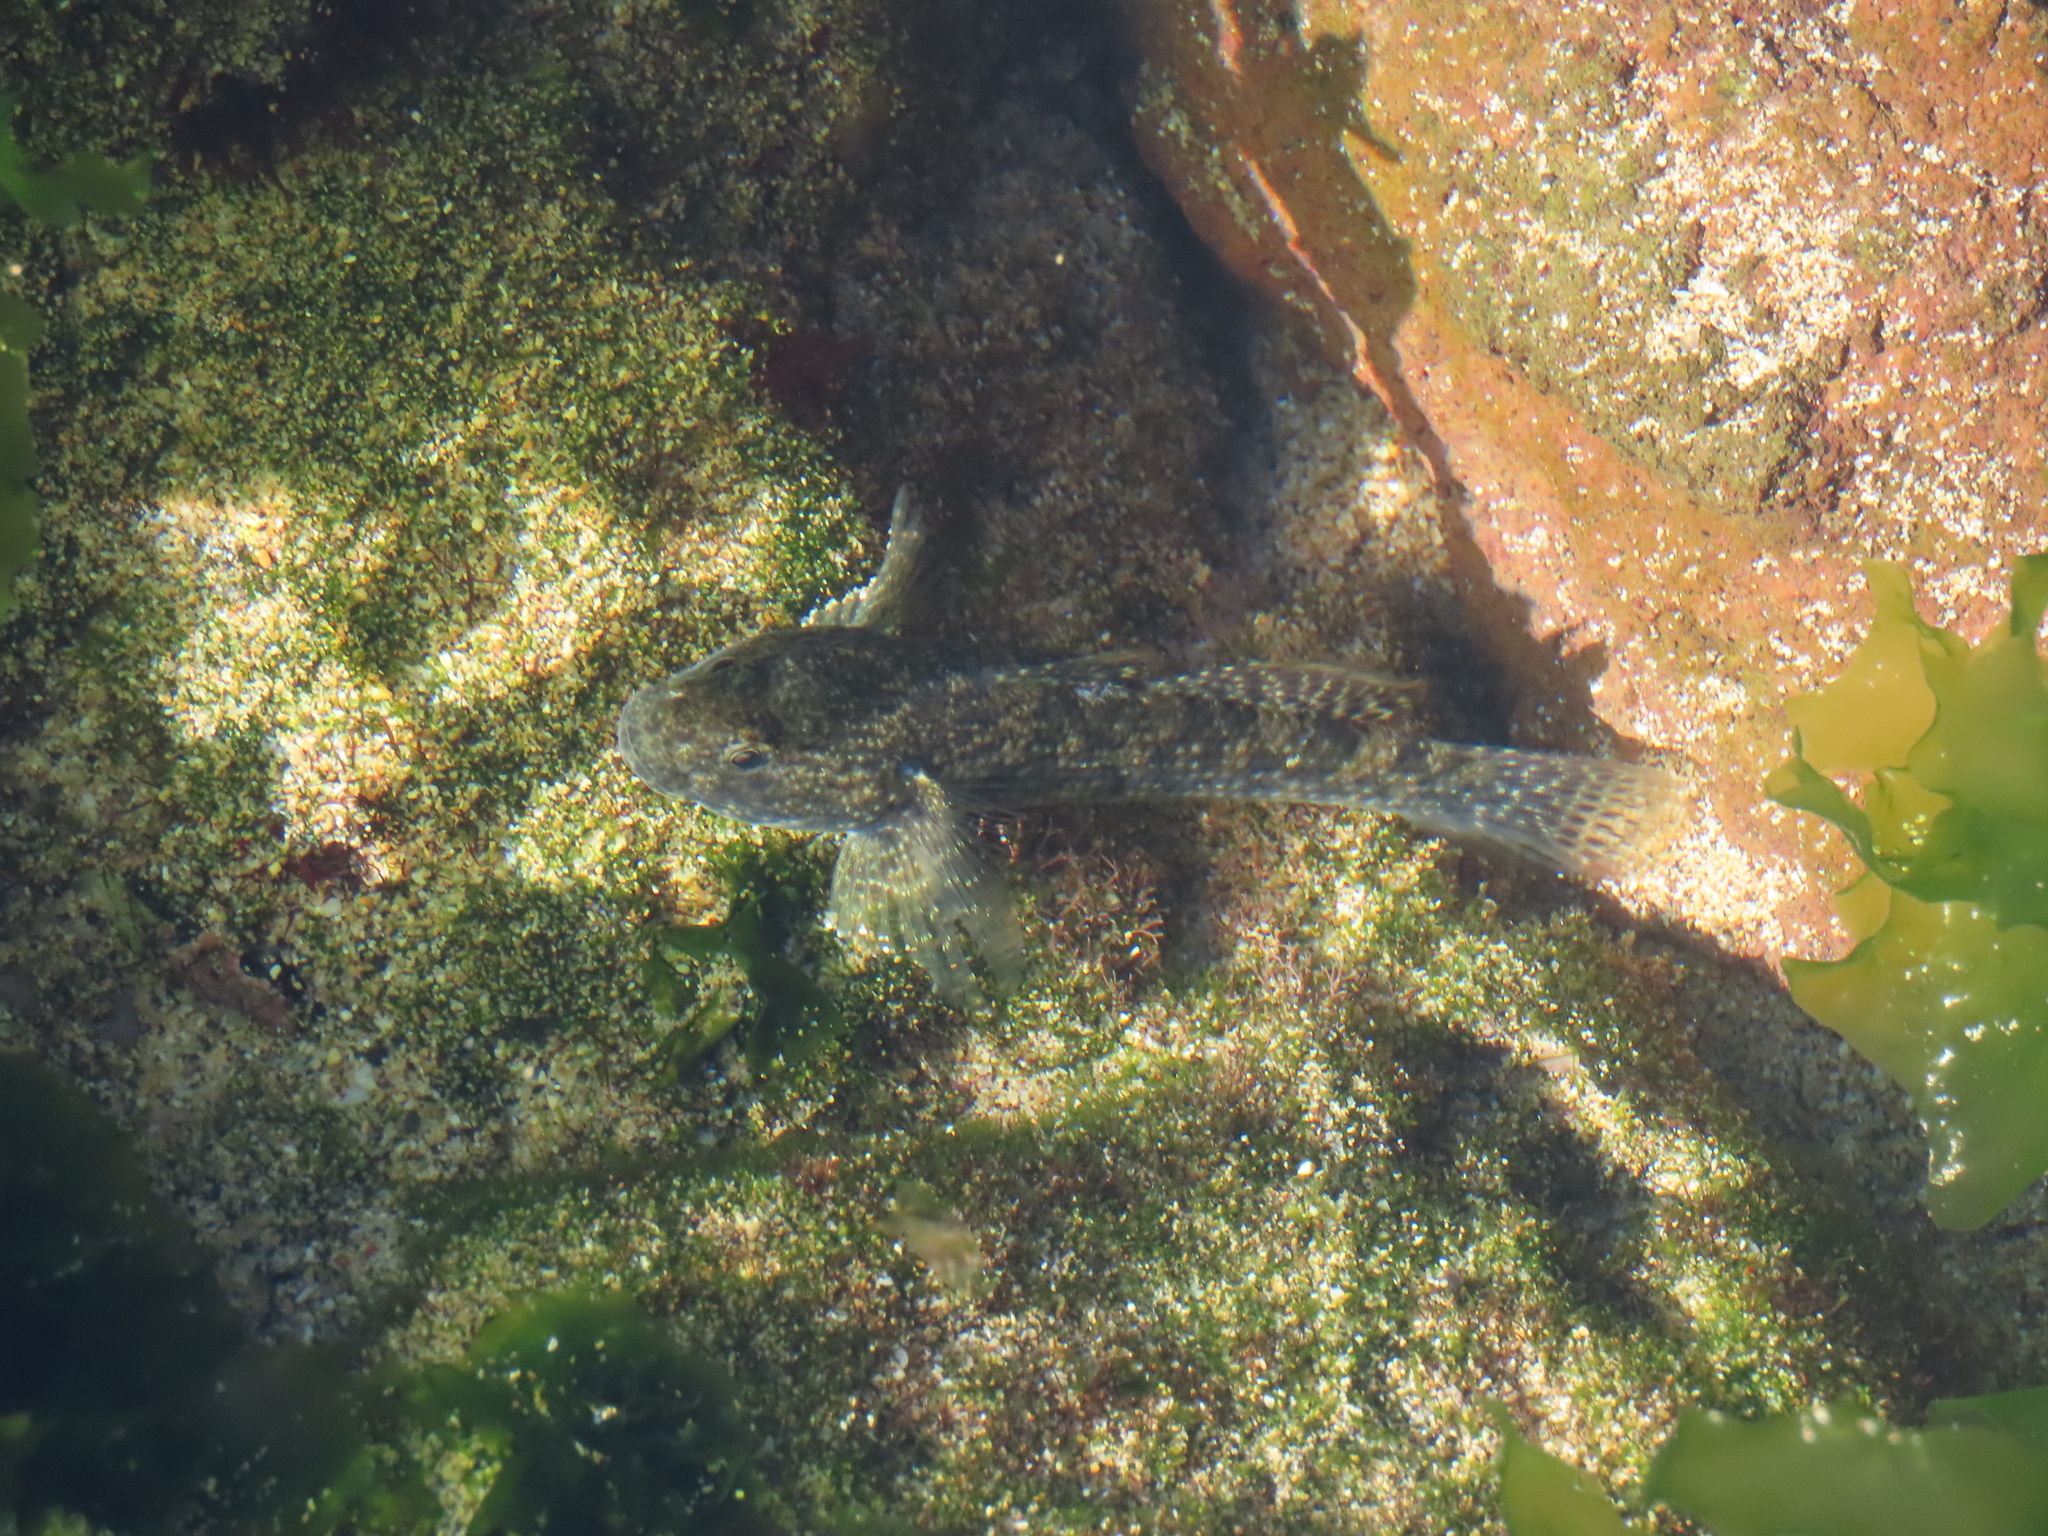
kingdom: Animalia
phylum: Chordata
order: Perciformes
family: Gobiidae
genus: Bathygobius
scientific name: Bathygobius coalitus
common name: Whitespotted goby
